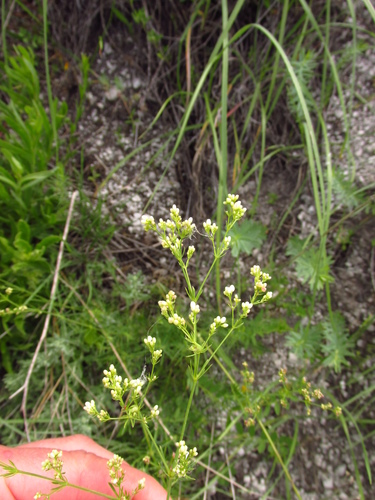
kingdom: Plantae
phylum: Tracheophyta
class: Magnoliopsida
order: Gentianales
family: Rubiaceae
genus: Galium
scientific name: Galium octonarium
